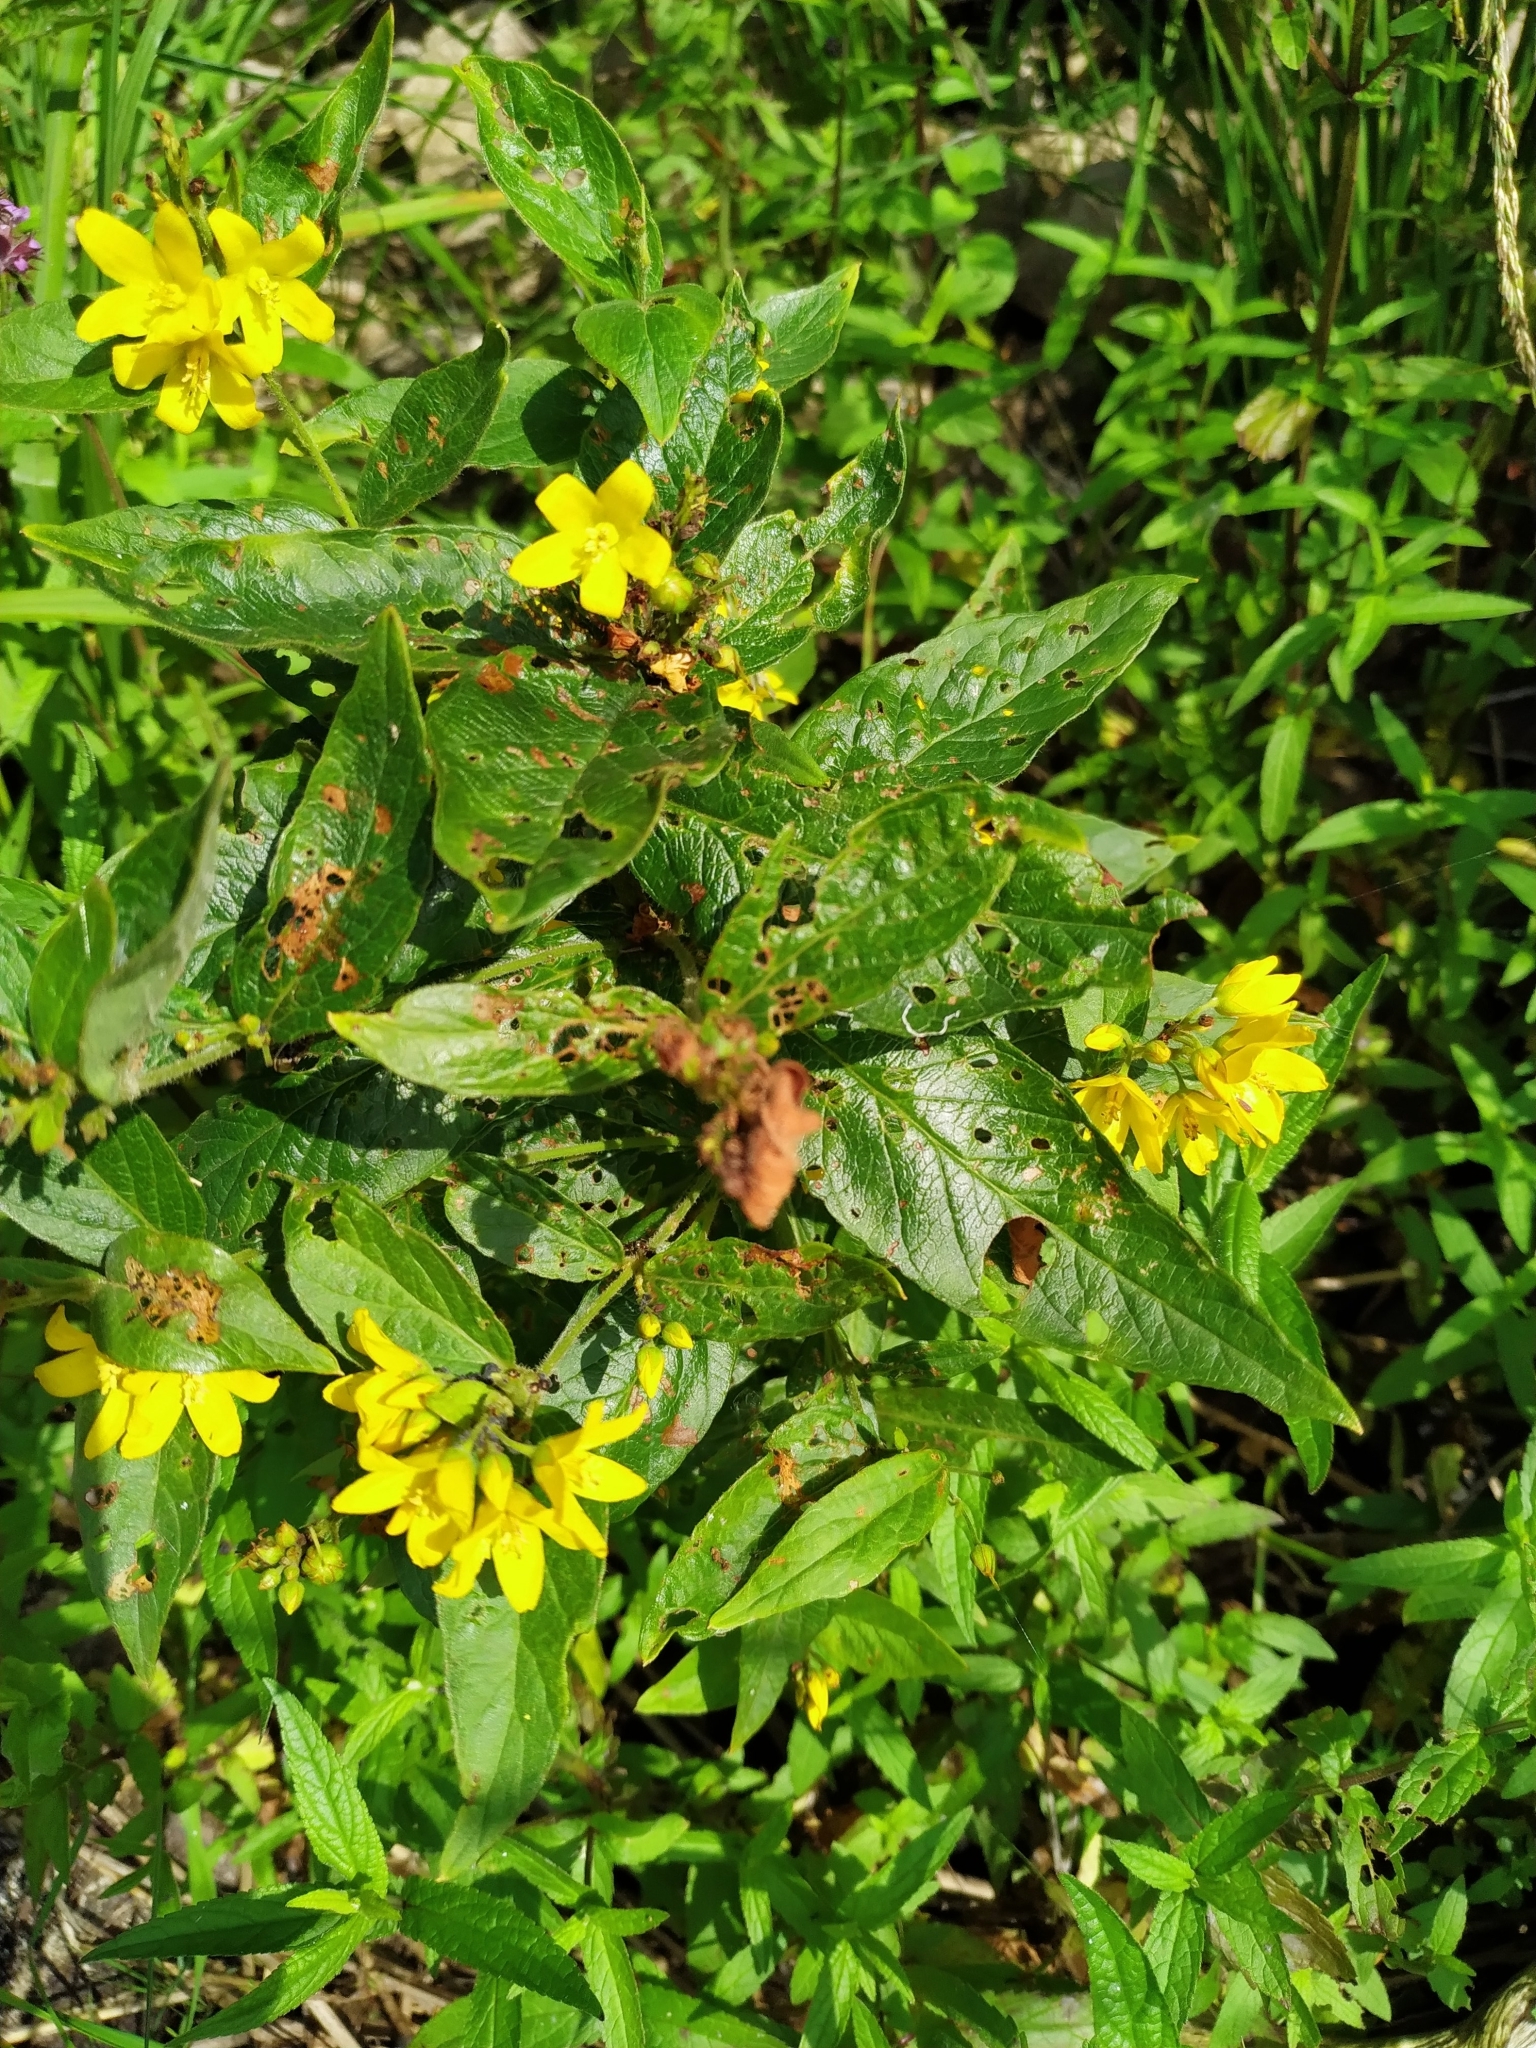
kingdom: Plantae
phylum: Tracheophyta
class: Magnoliopsida
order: Ericales
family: Primulaceae
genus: Lysimachia
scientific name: Lysimachia vulgaris
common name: Yellow loosestrife
